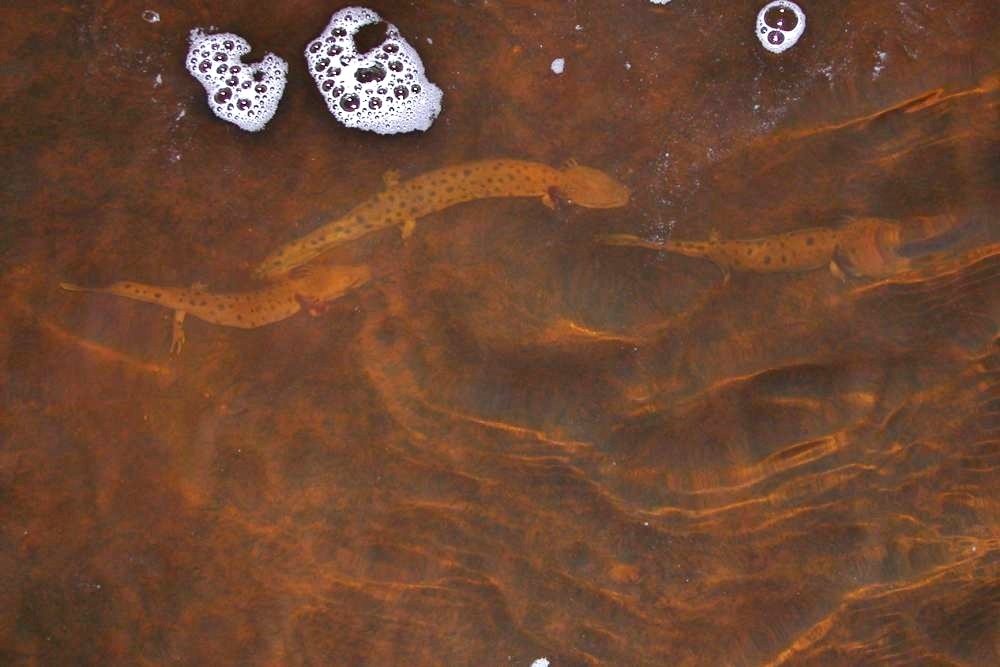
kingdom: Animalia
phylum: Chordata
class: Amphibia
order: Caudata
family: Proteidae
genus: Necturus
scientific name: Necturus maculosus
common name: Mudpuppy
